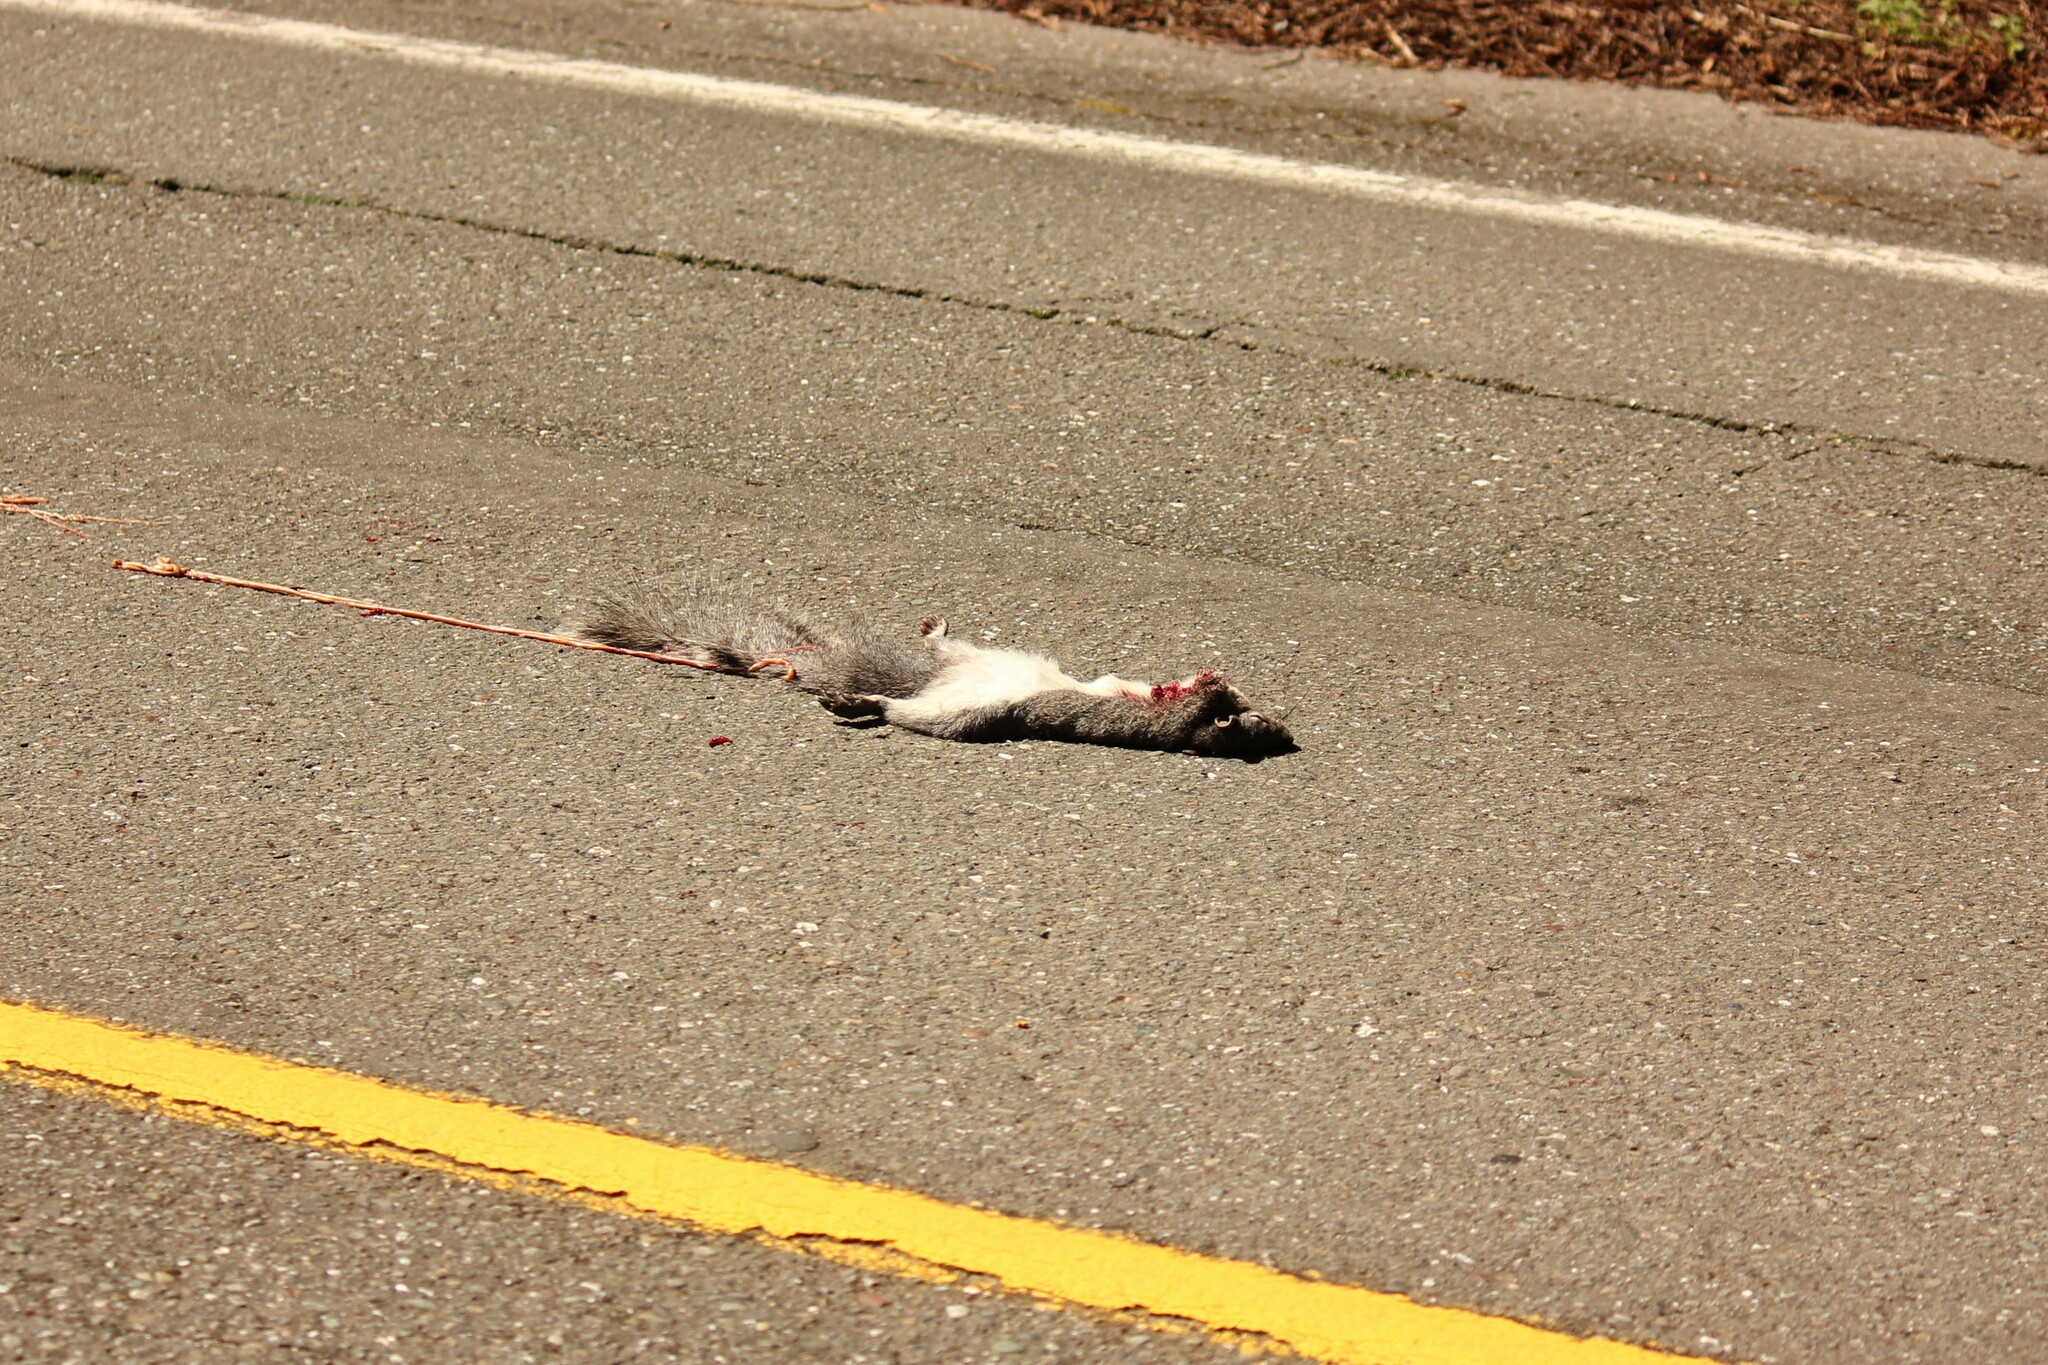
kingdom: Animalia
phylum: Chordata
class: Mammalia
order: Rodentia
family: Sciuridae
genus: Sciurus
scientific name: Sciurus griseus
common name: Western gray squirrel
